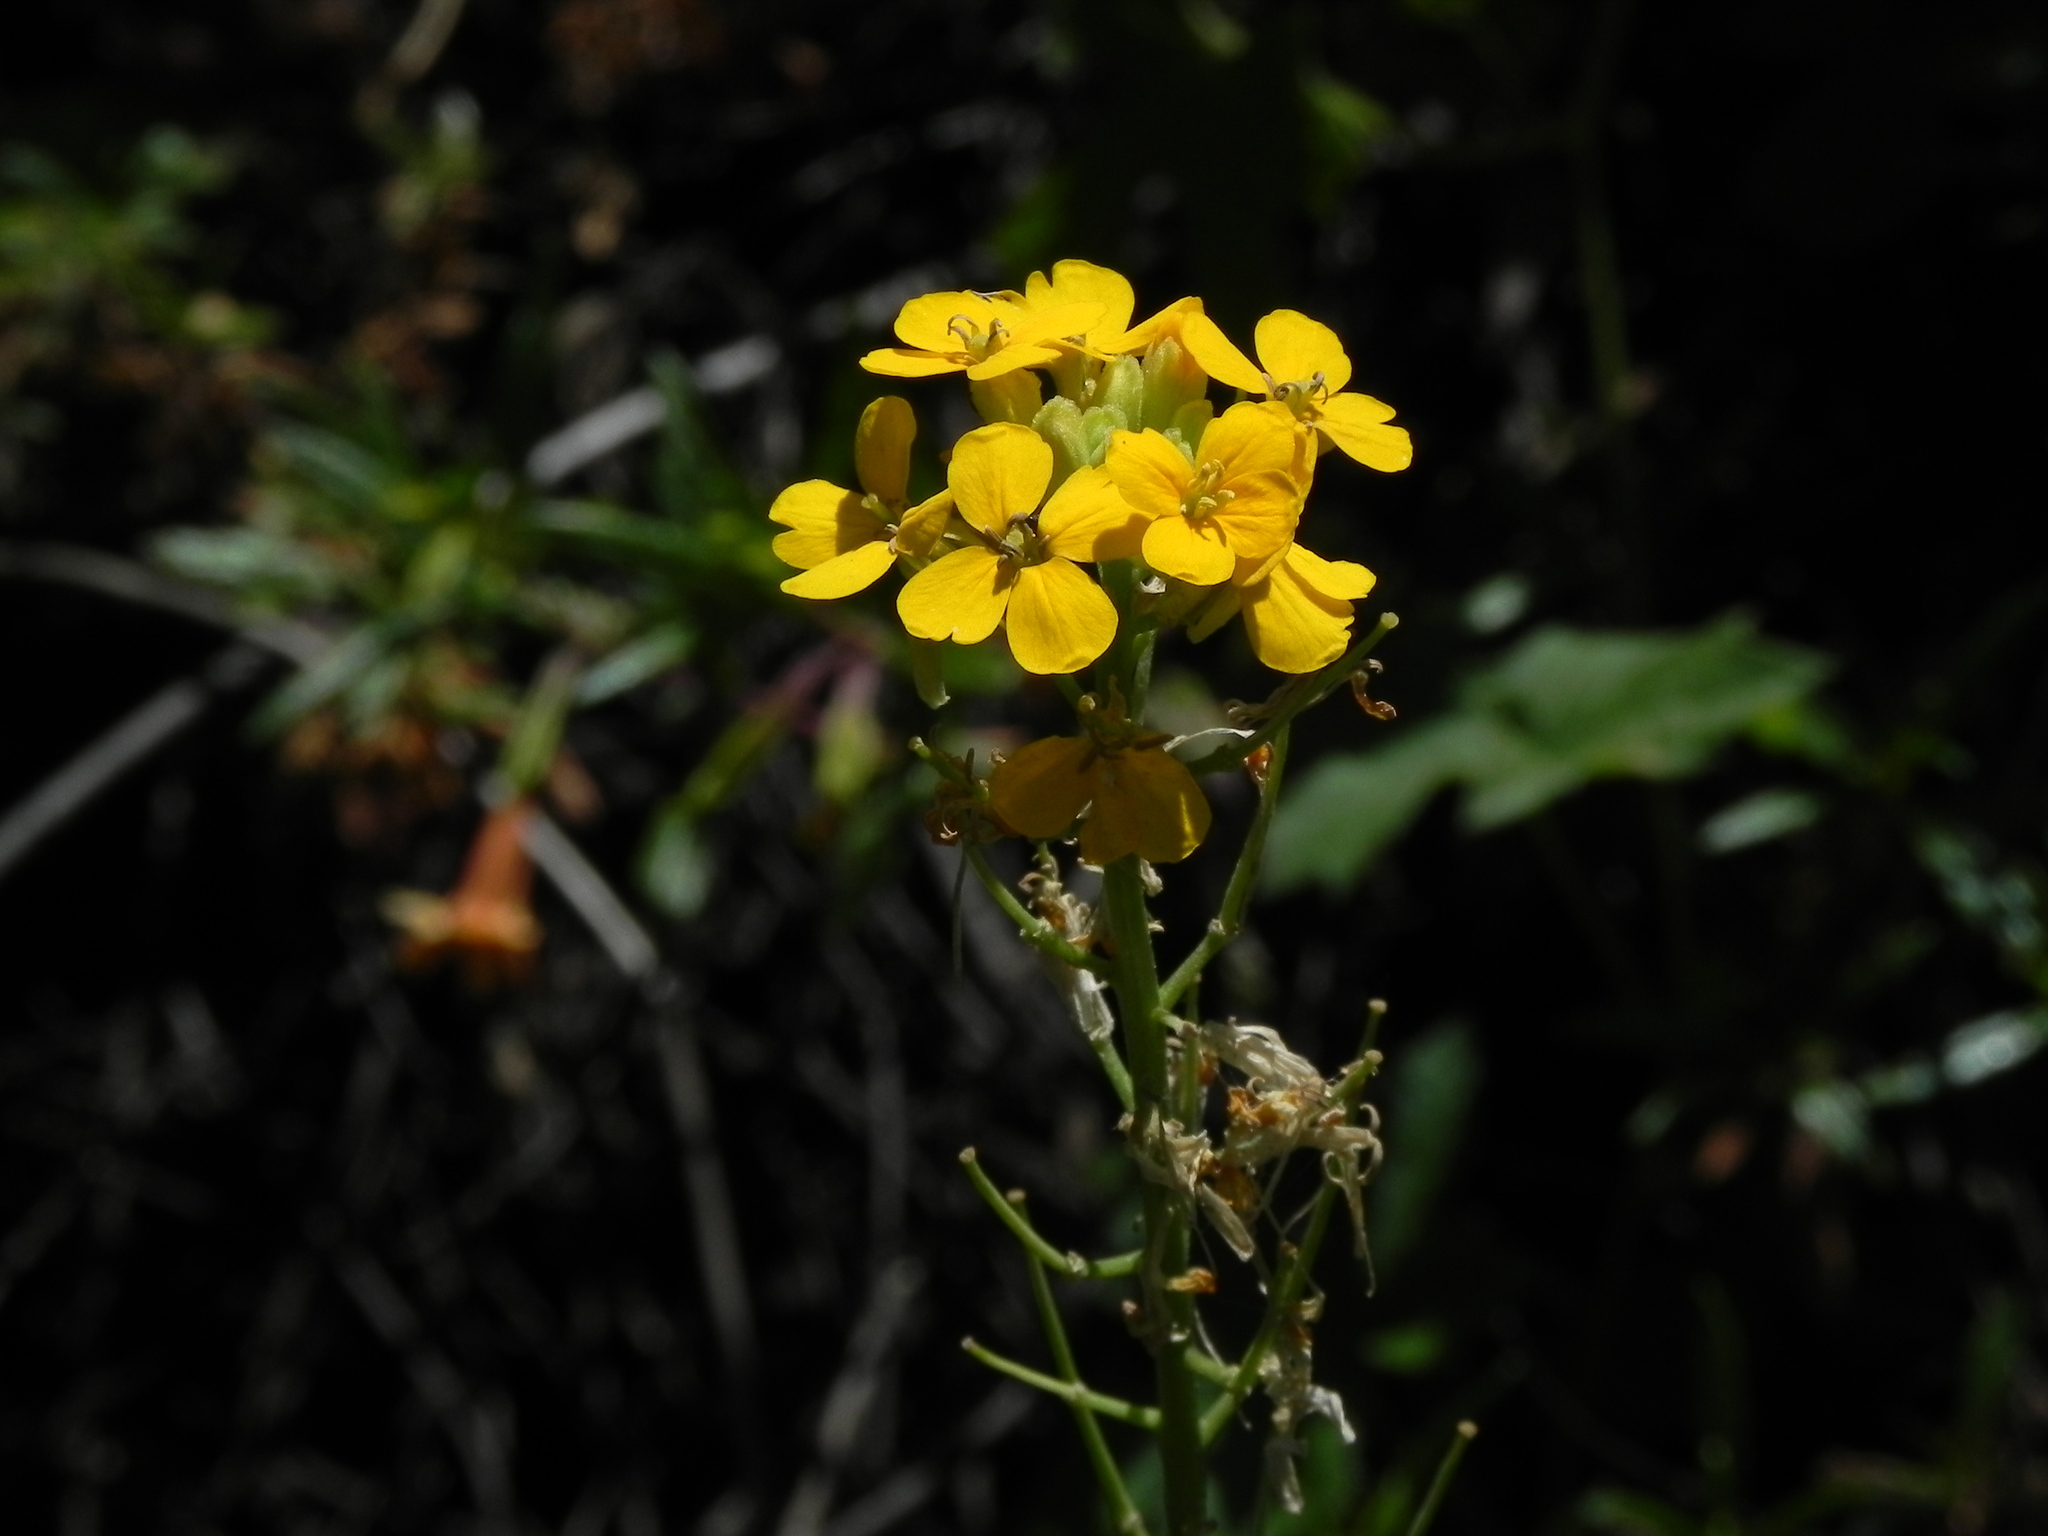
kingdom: Plantae
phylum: Tracheophyta
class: Magnoliopsida
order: Brassicales
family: Brassicaceae
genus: Erysimum
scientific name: Erysimum capitatum
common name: Western wallflower
